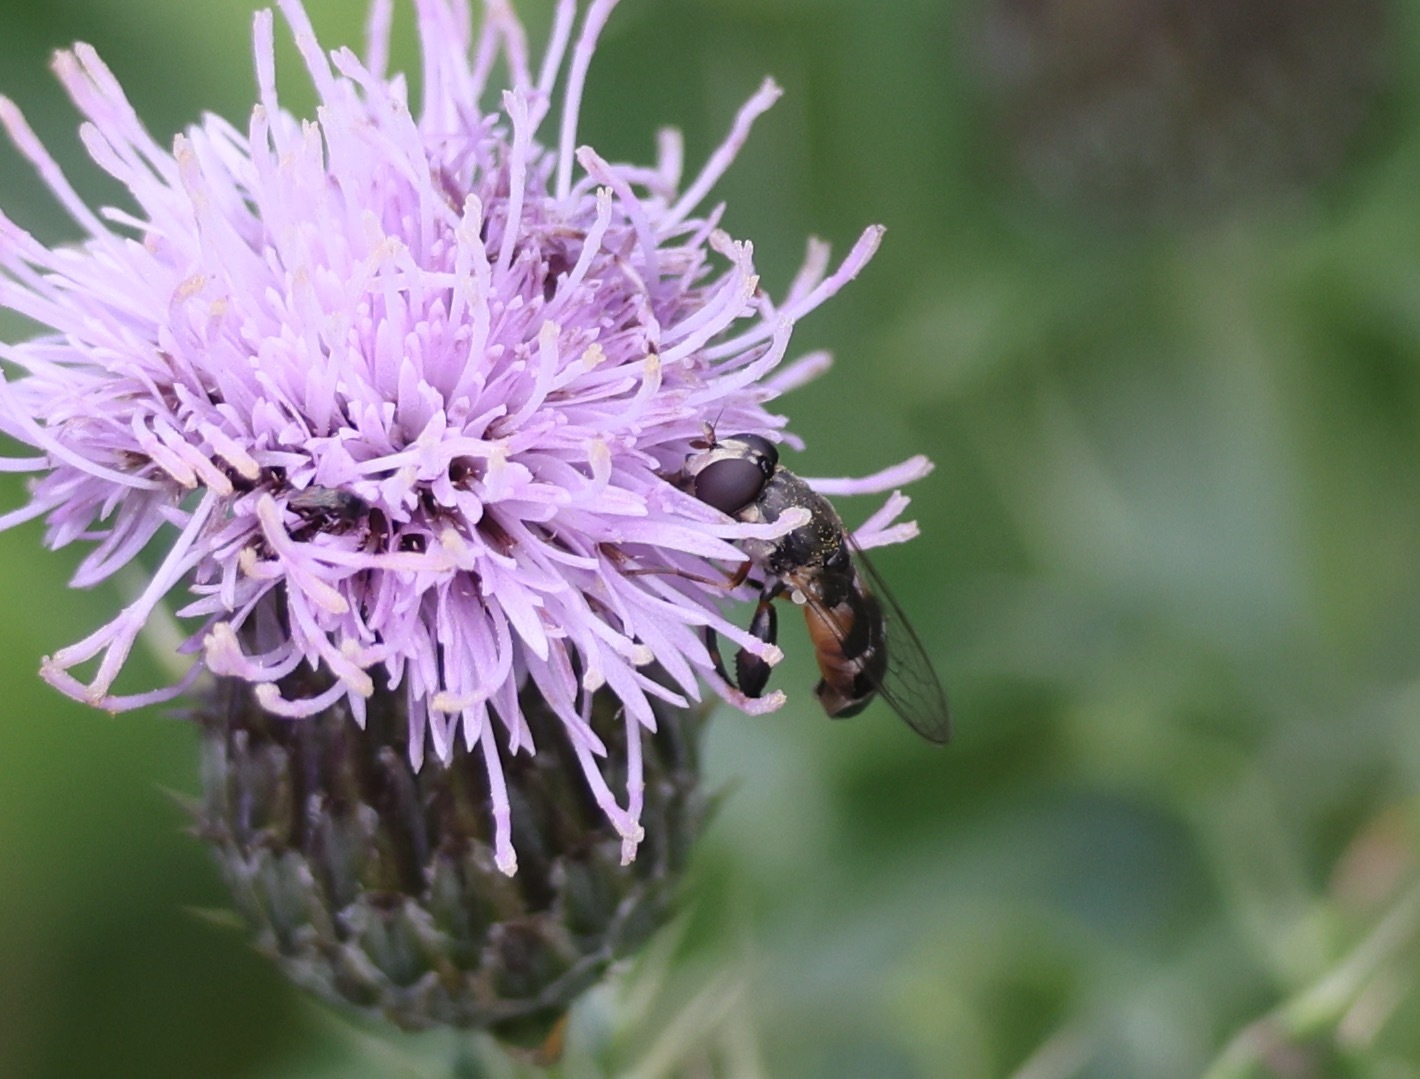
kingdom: Animalia
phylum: Arthropoda
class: Insecta
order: Diptera
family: Syrphidae
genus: Syritta
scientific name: Syritta pipiens
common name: Hover fly
